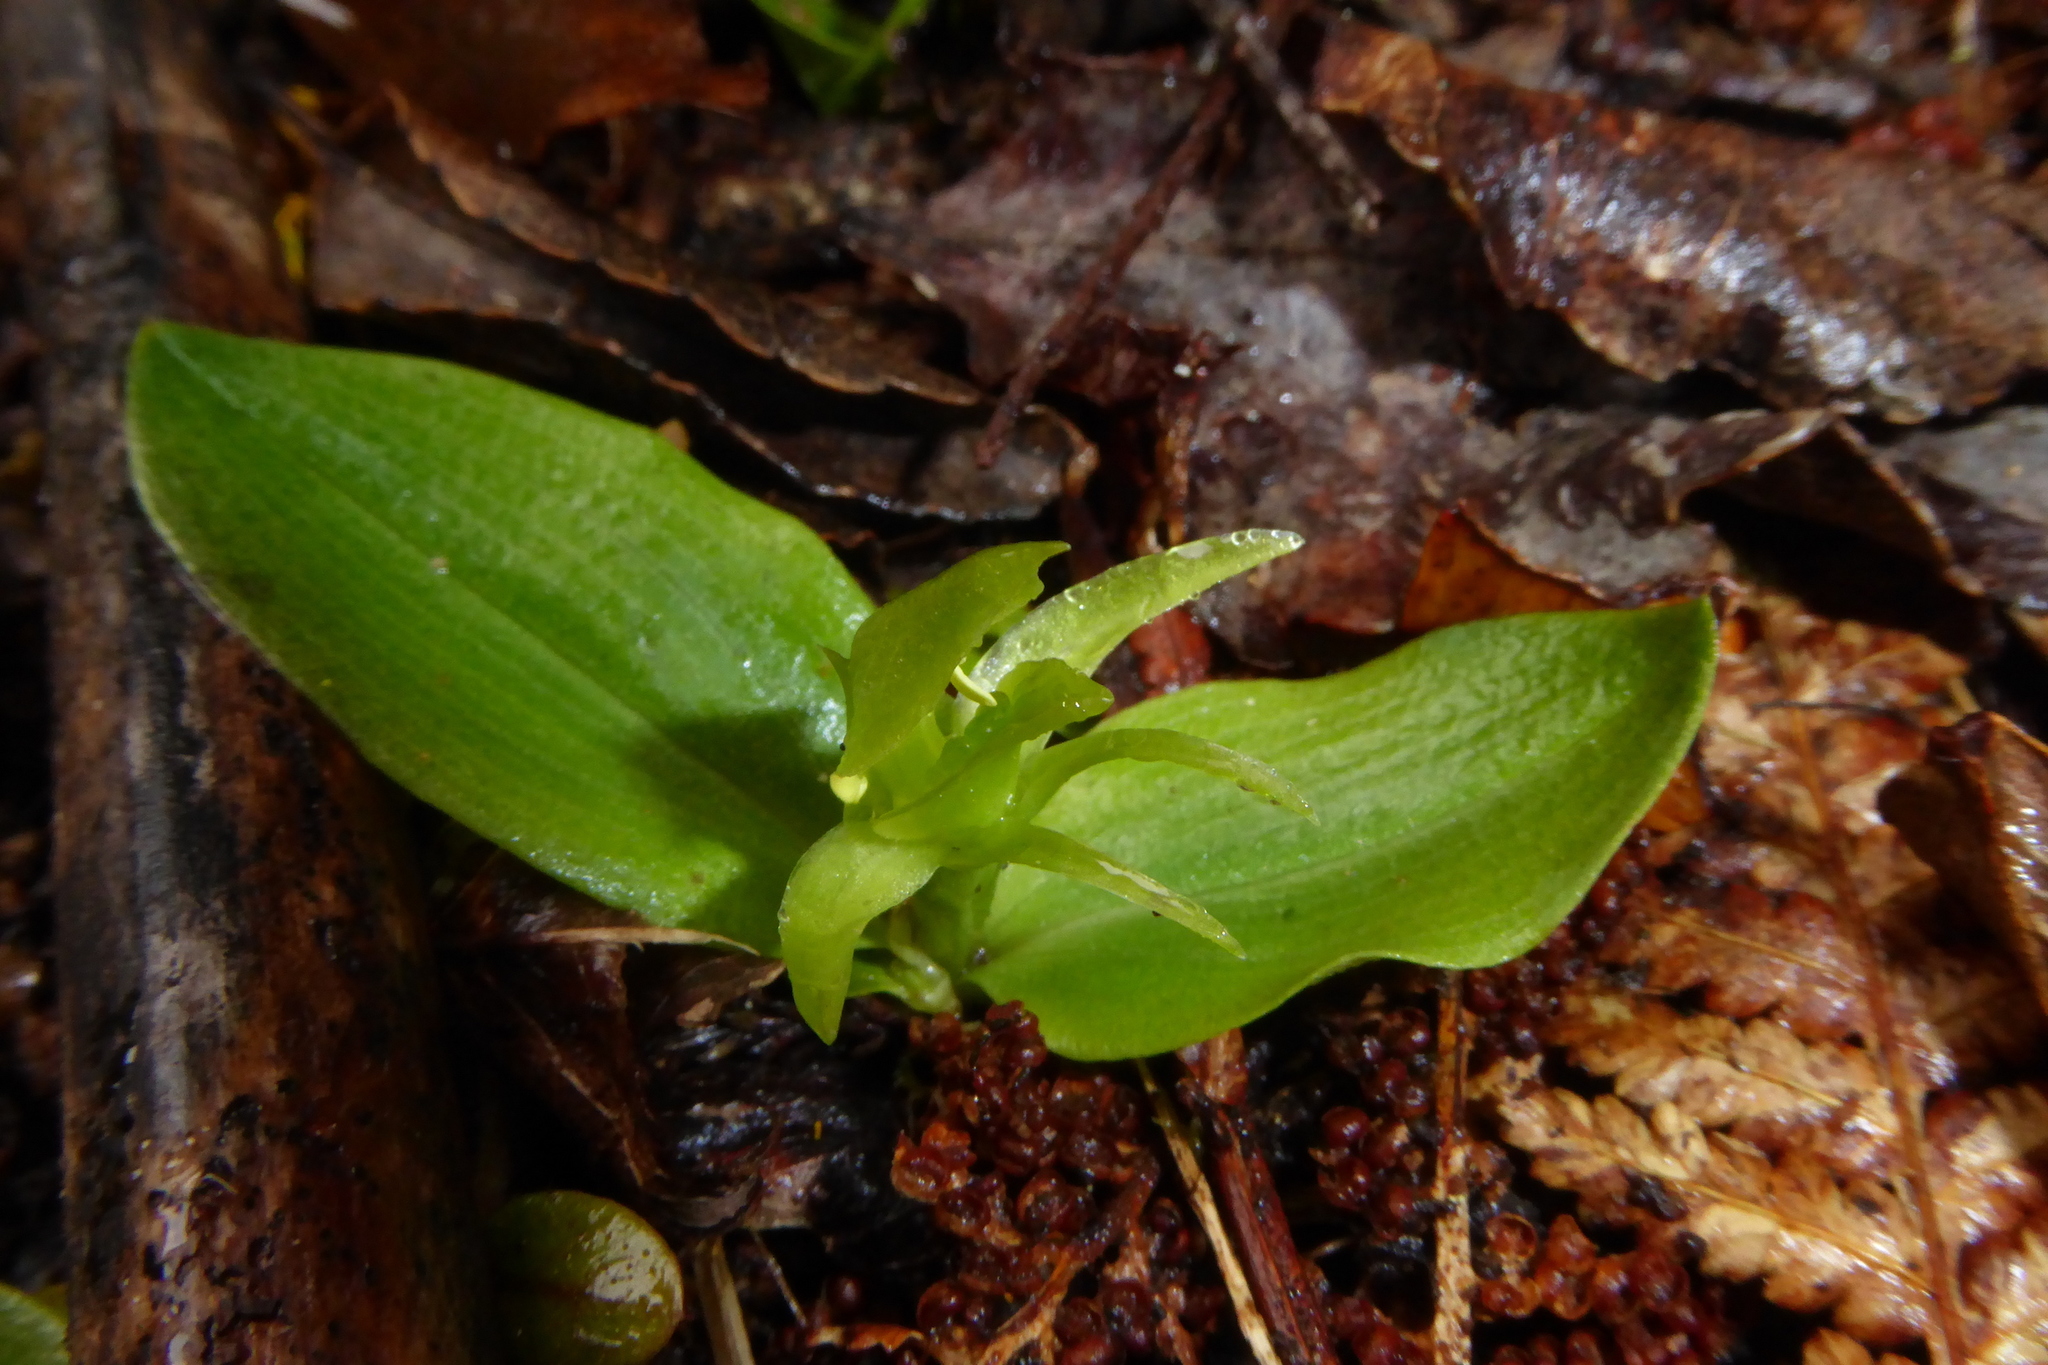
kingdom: Plantae
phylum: Tracheophyta
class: Liliopsida
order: Asparagales
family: Orchidaceae
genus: Chiloglottis
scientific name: Chiloglottis cornuta
